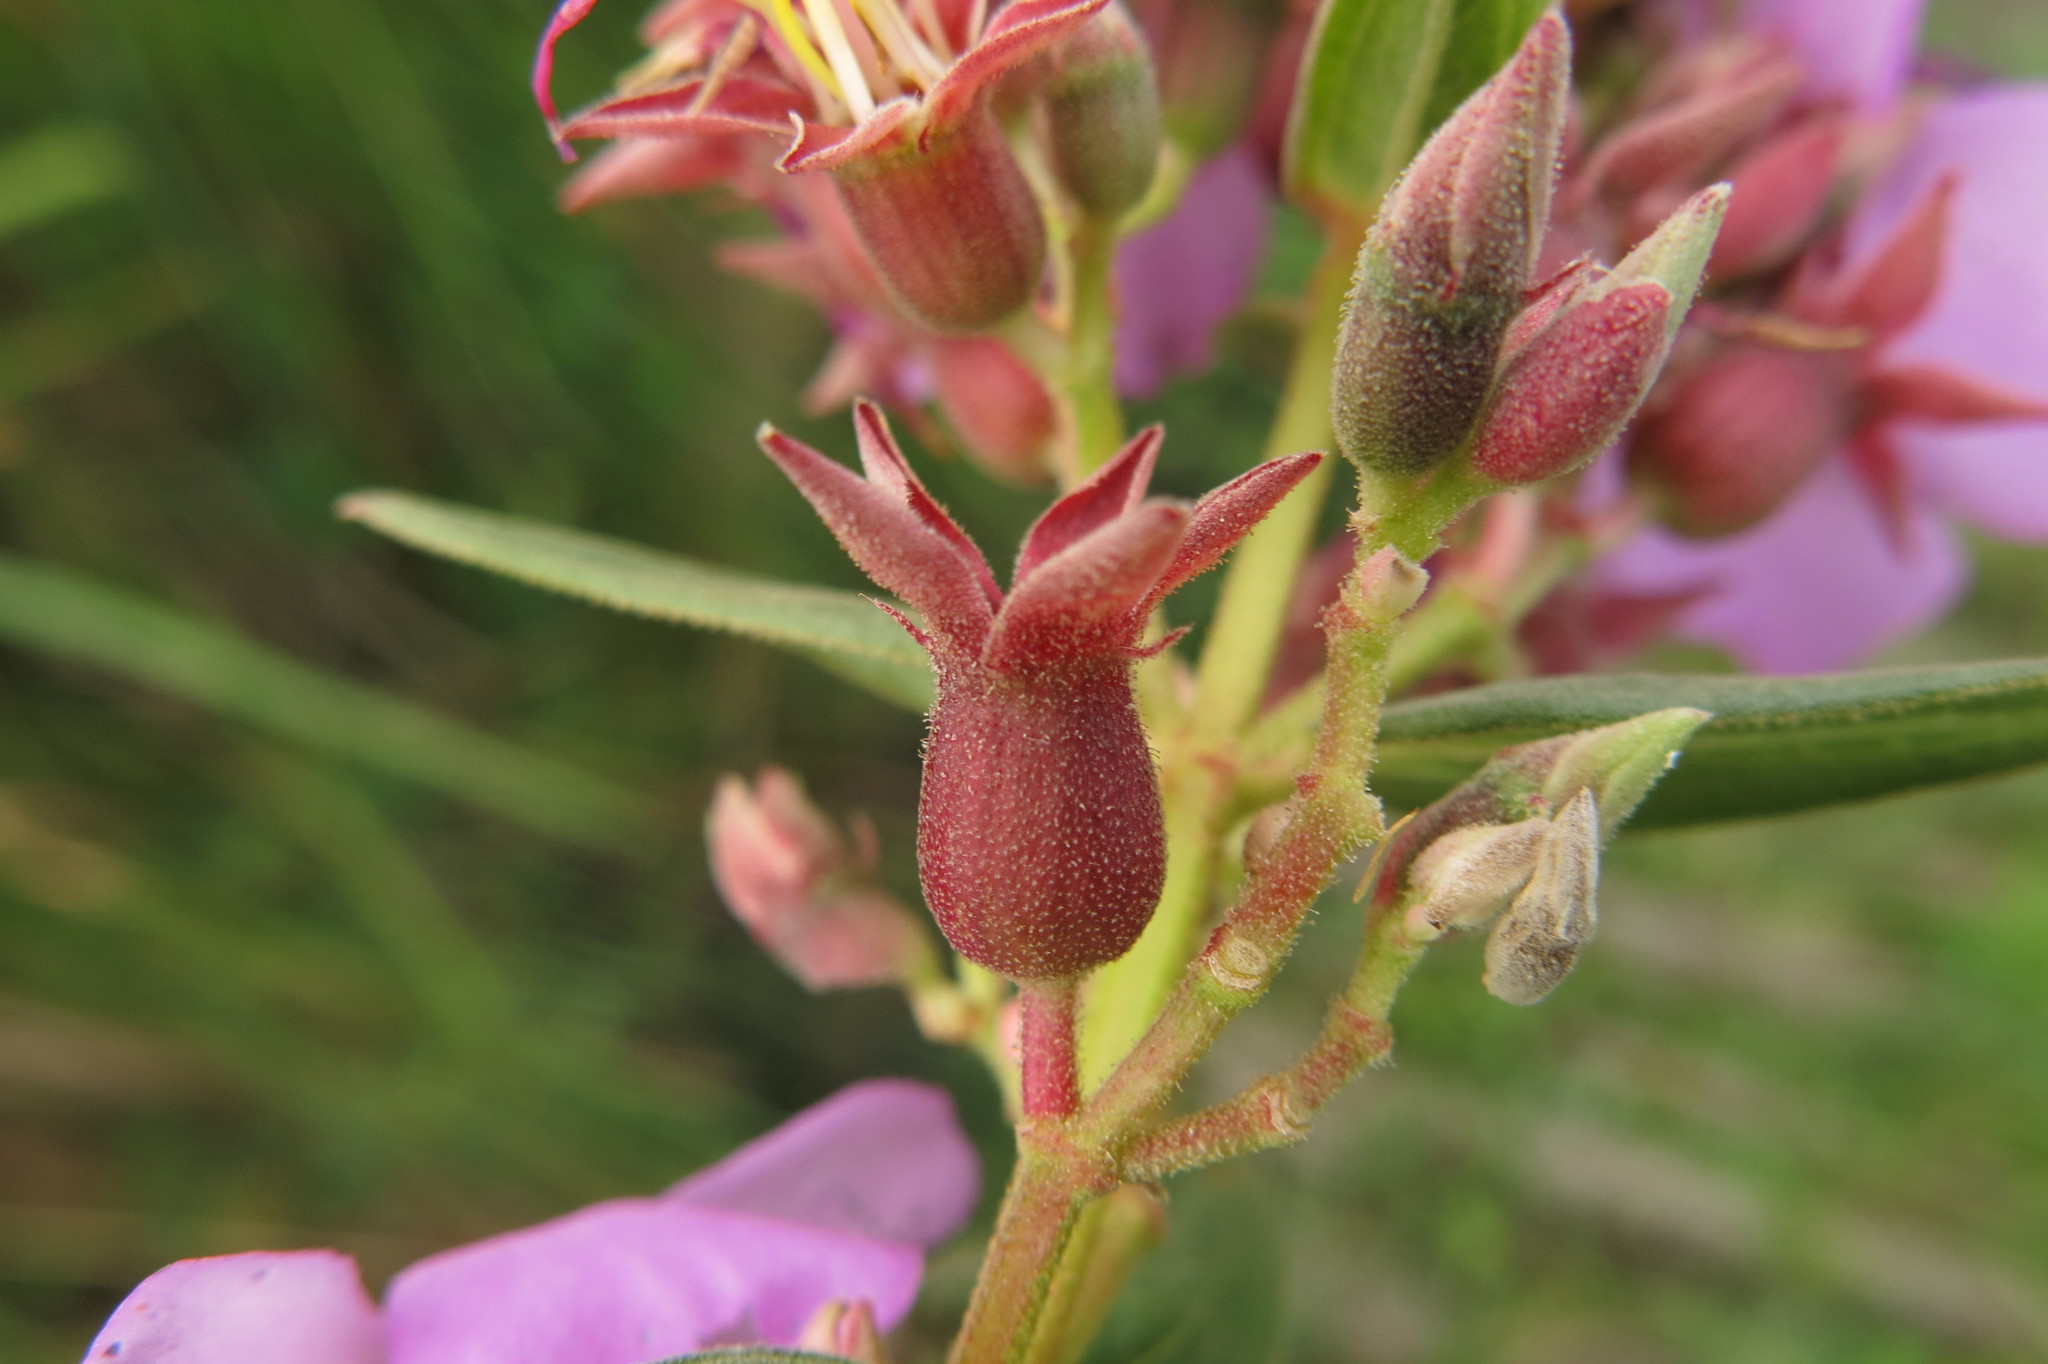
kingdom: Plantae
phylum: Tracheophyta
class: Magnoliopsida
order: Myrtales
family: Melastomataceae
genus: Argyrella
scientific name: Argyrella canescens
